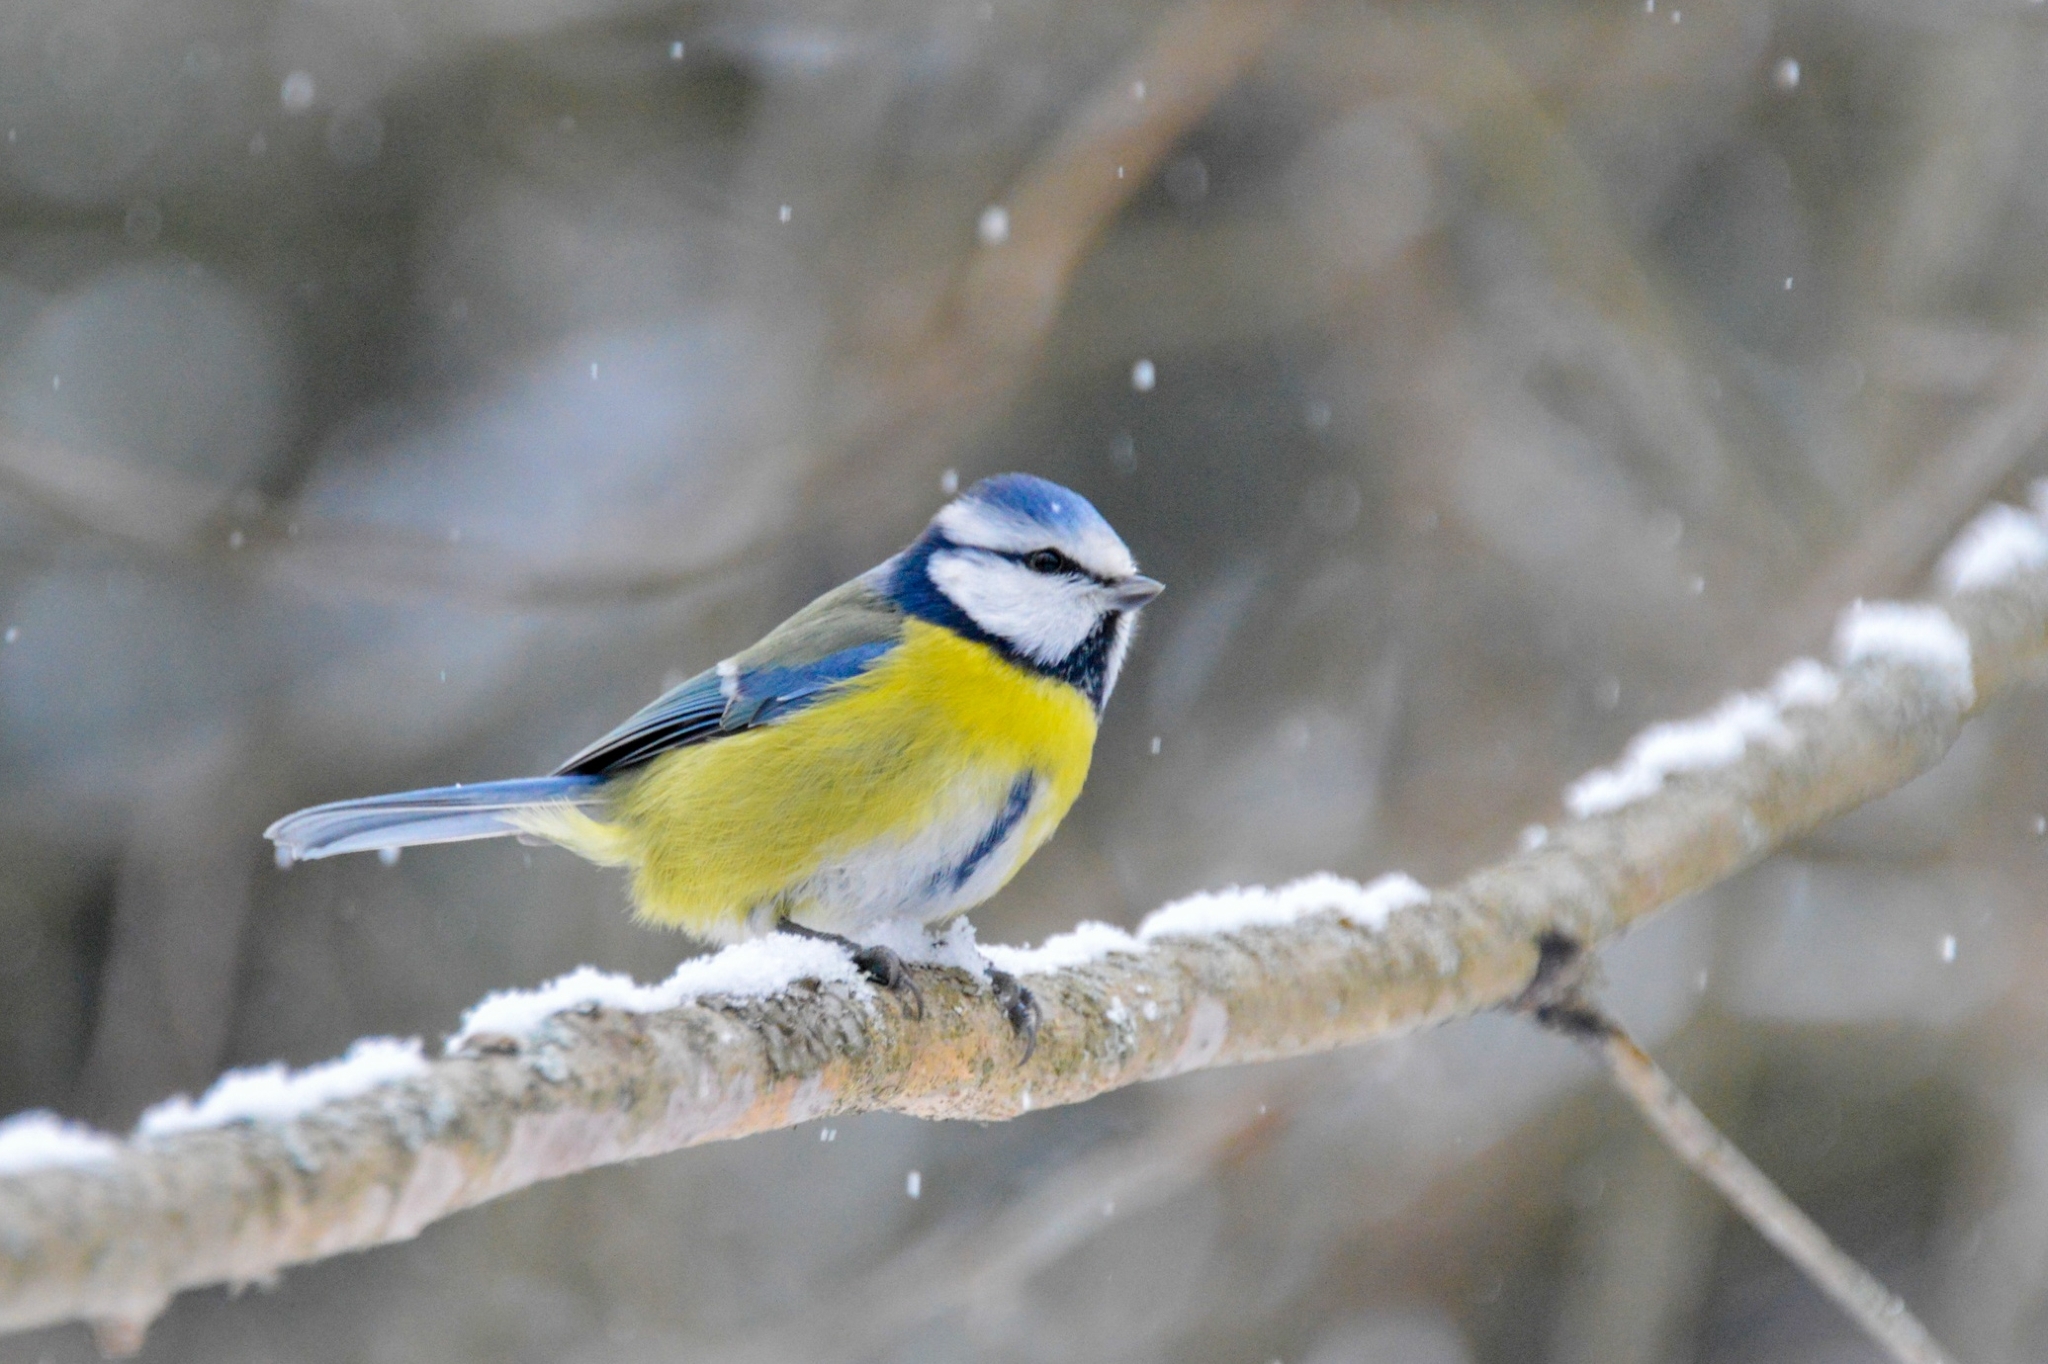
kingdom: Animalia
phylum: Chordata
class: Aves
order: Passeriformes
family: Paridae
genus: Cyanistes
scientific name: Cyanistes caeruleus
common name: Eurasian blue tit
